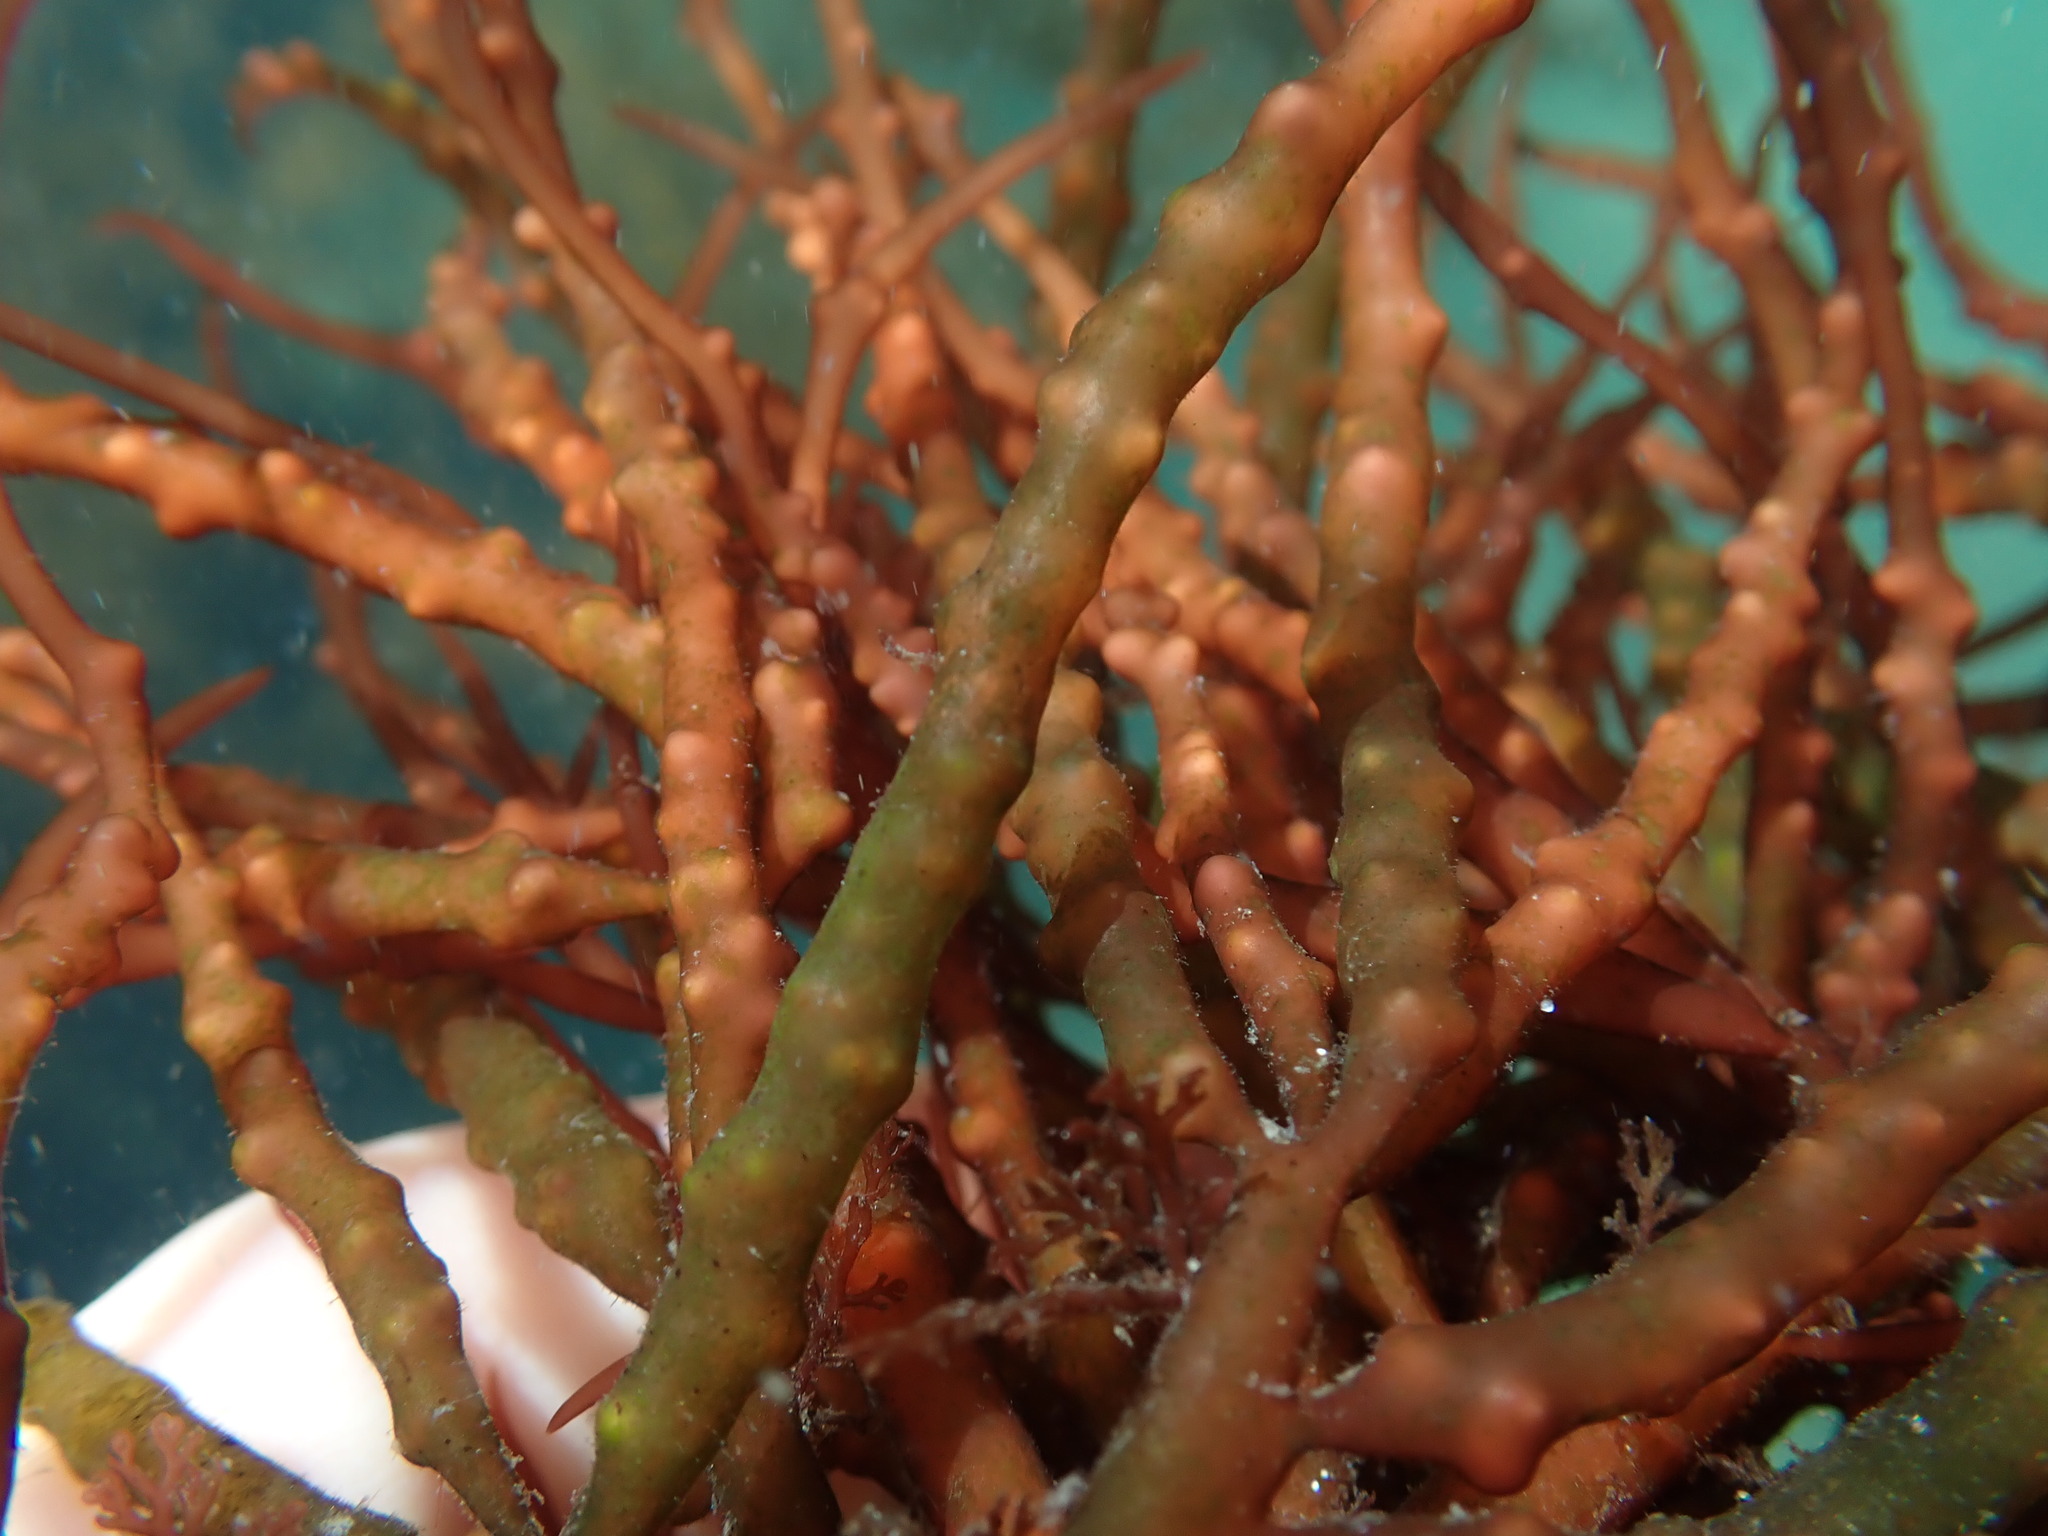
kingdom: Plantae
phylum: Rhodophyta
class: Florideophyceae
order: Gigartinales
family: Solieriaceae
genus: Sarcodiotheca
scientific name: Sarcodiotheca gaudichaudii
